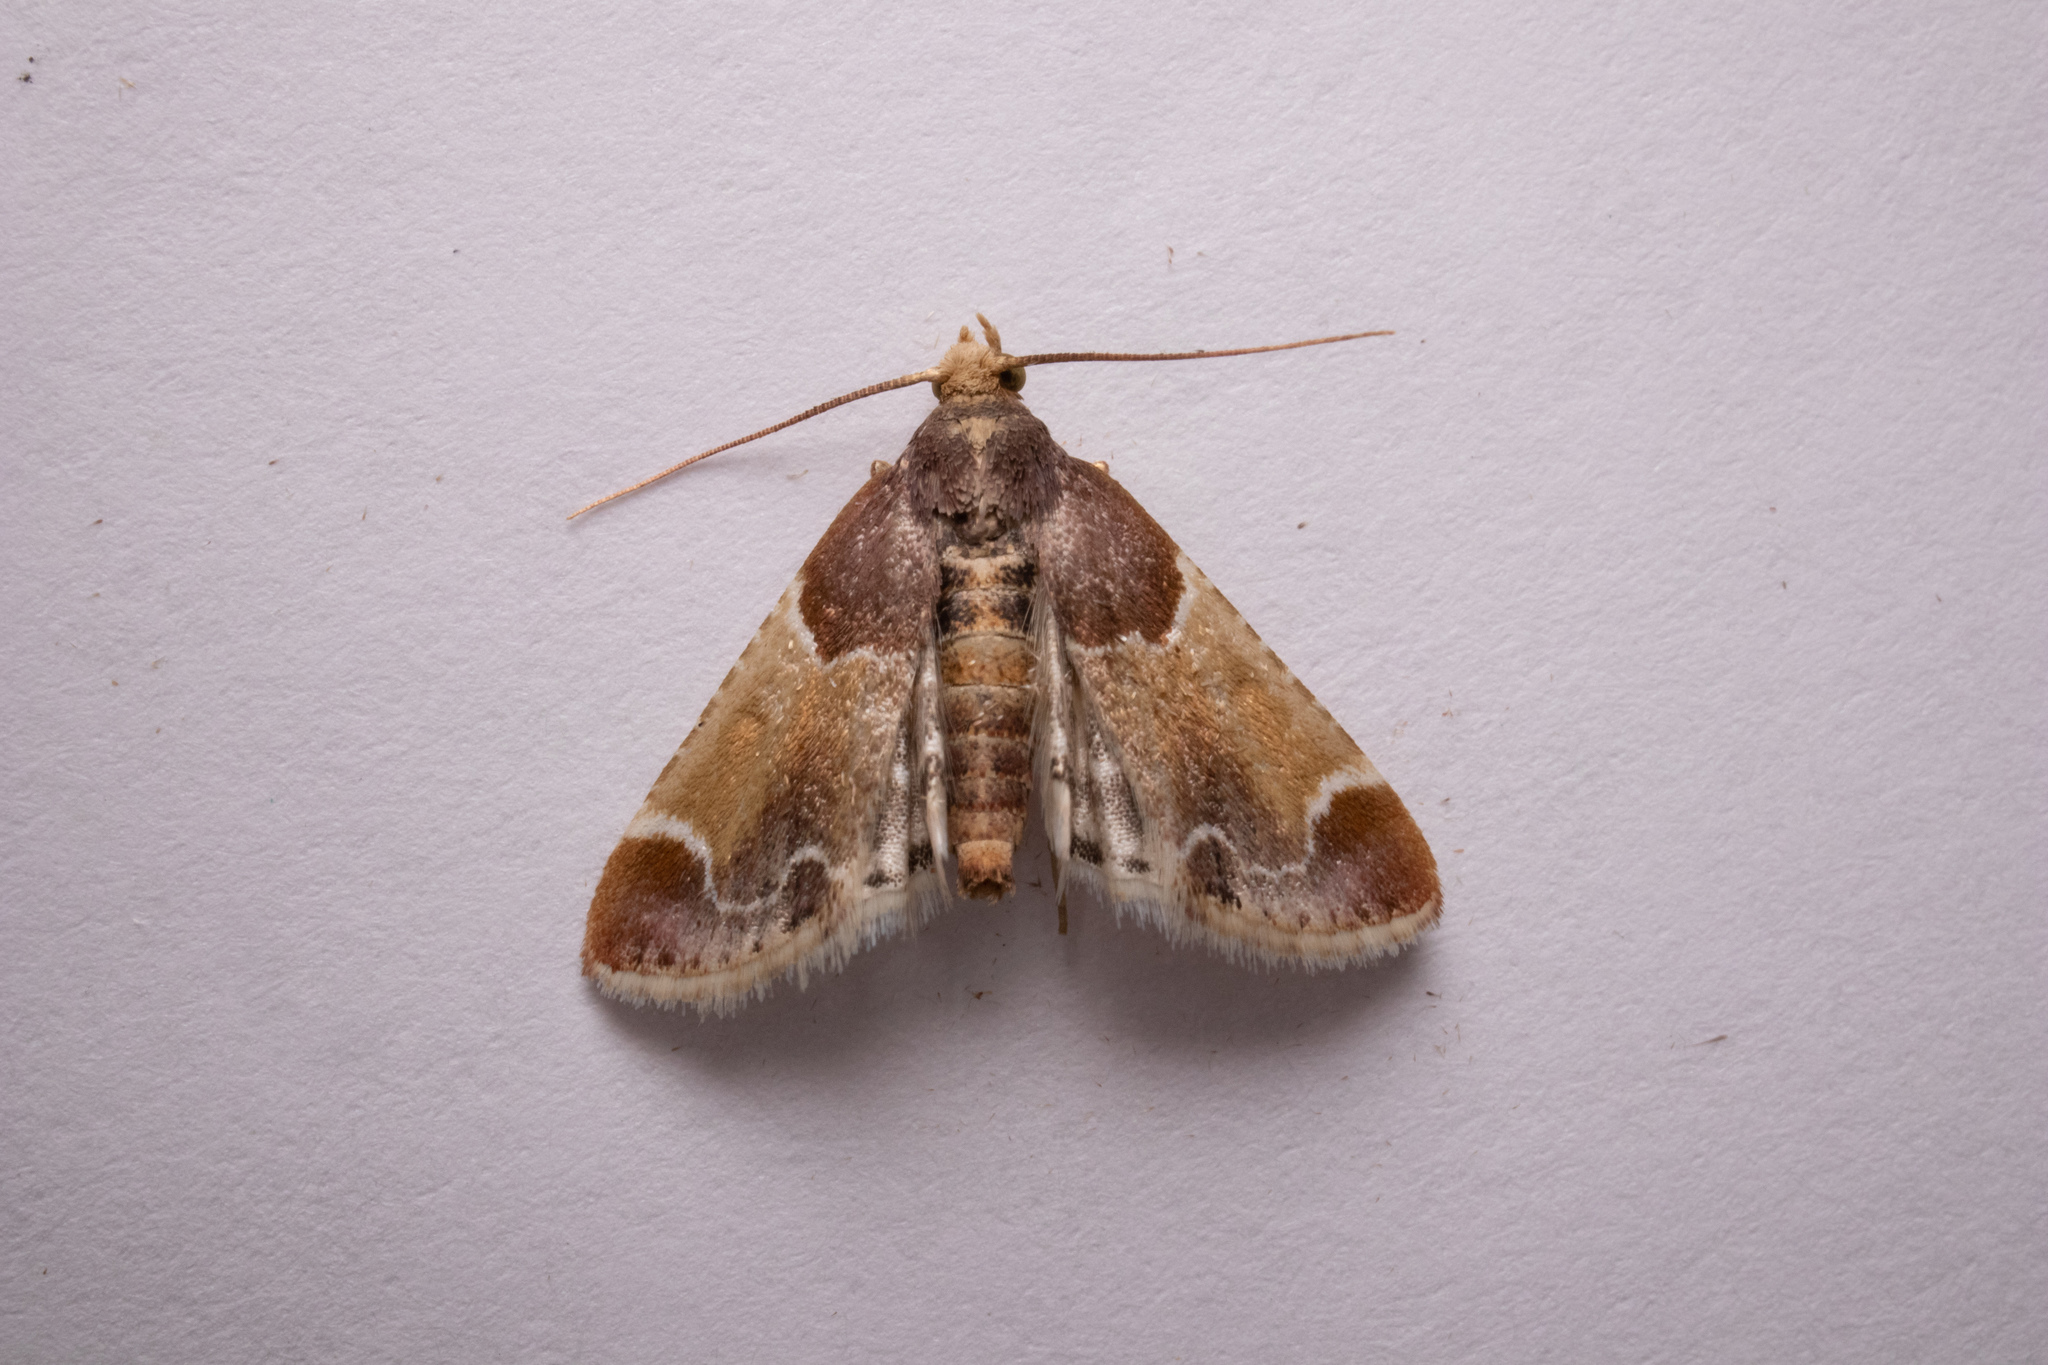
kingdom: Animalia
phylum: Arthropoda
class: Insecta
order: Lepidoptera
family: Pyralidae
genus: Pyralis
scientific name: Pyralis farinalis
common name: Meal moth
